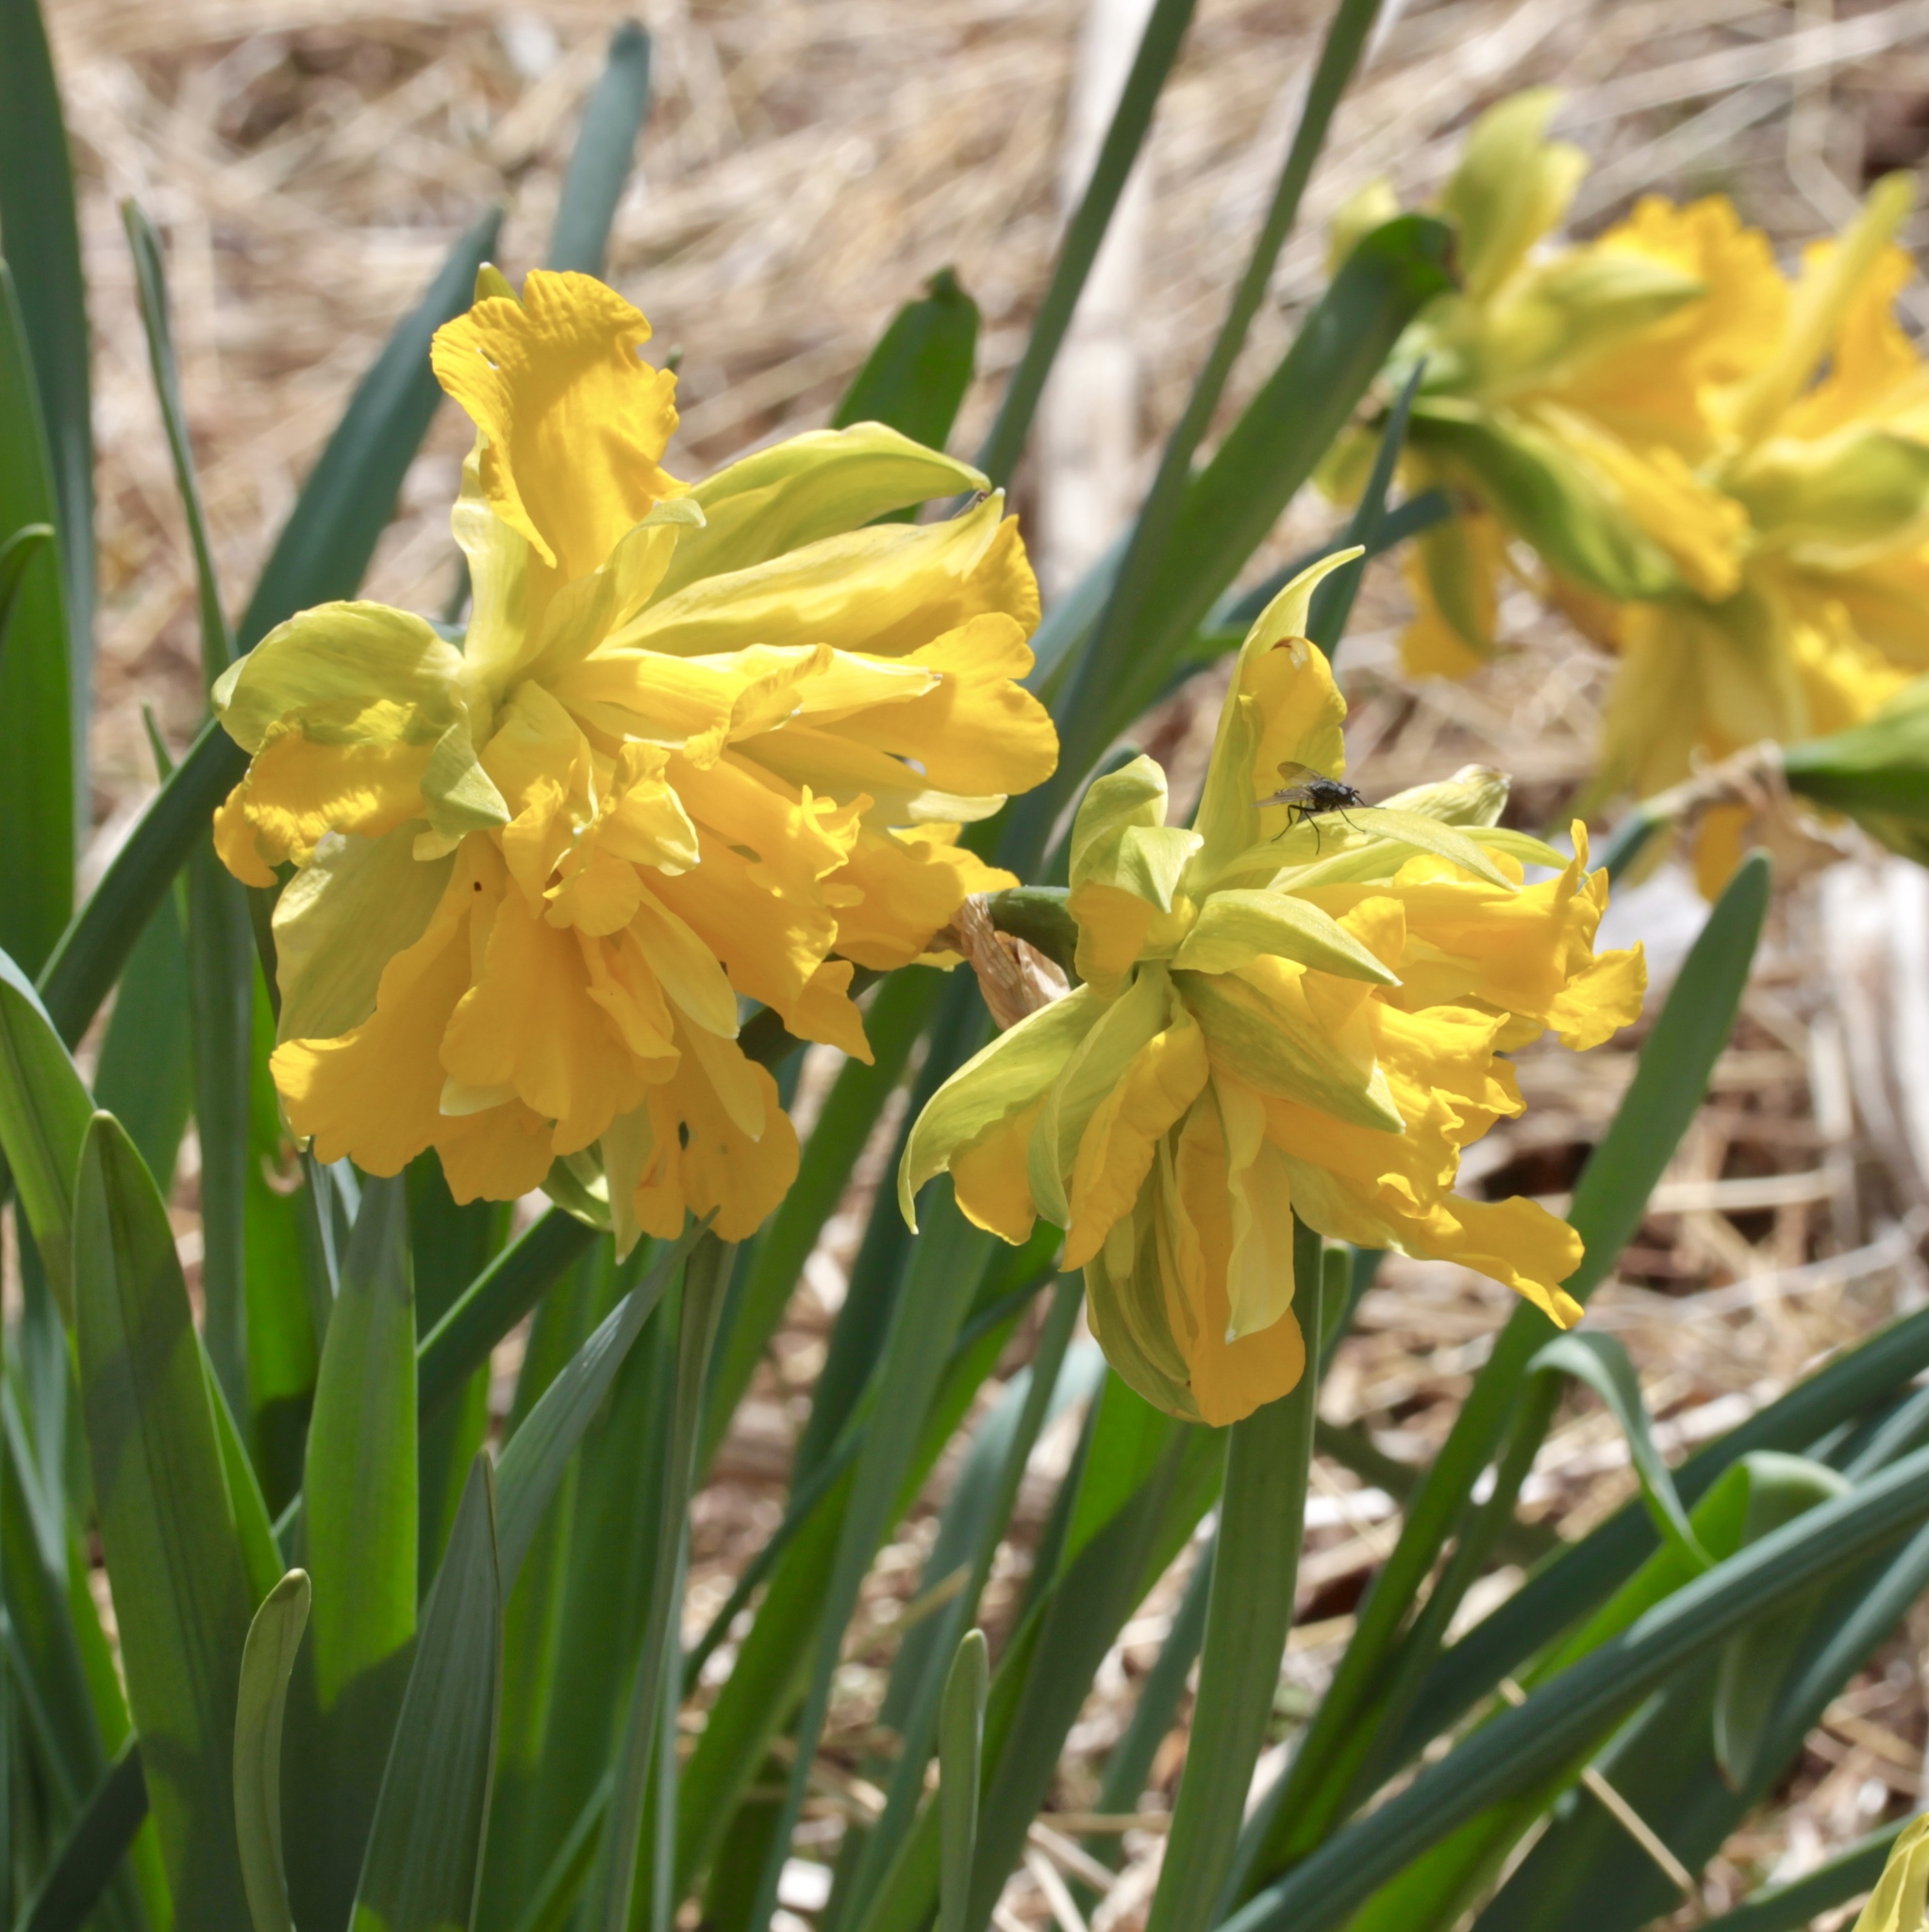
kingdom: Plantae
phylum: Tracheophyta
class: Liliopsida
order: Asparagales
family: Amaryllidaceae
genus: Narcissus
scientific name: Narcissus
